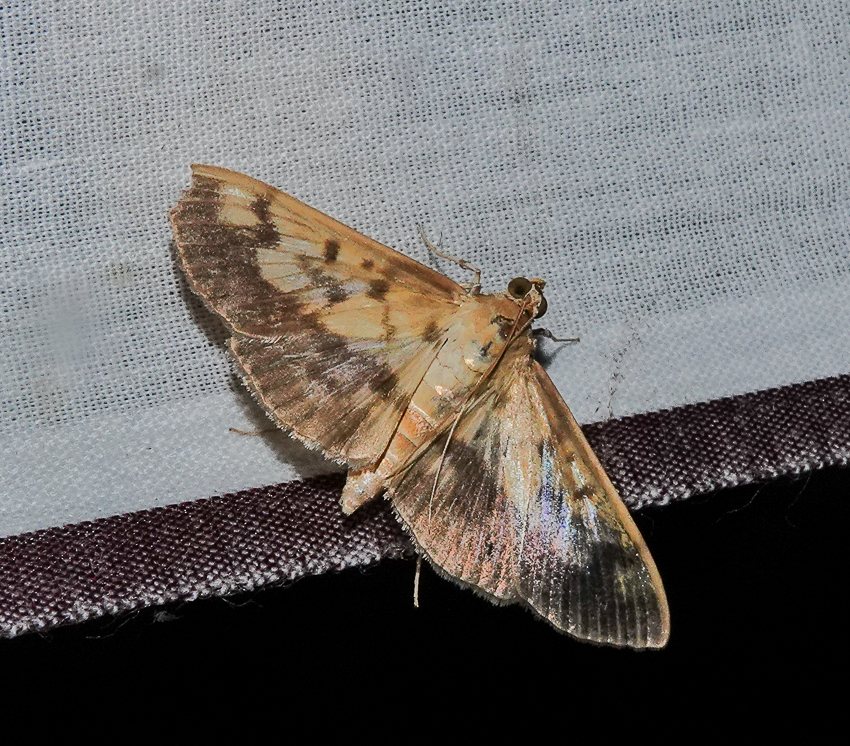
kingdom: Animalia
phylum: Arthropoda
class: Insecta
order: Lepidoptera
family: Crambidae
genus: Syllepte
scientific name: Syllepte sellalis
